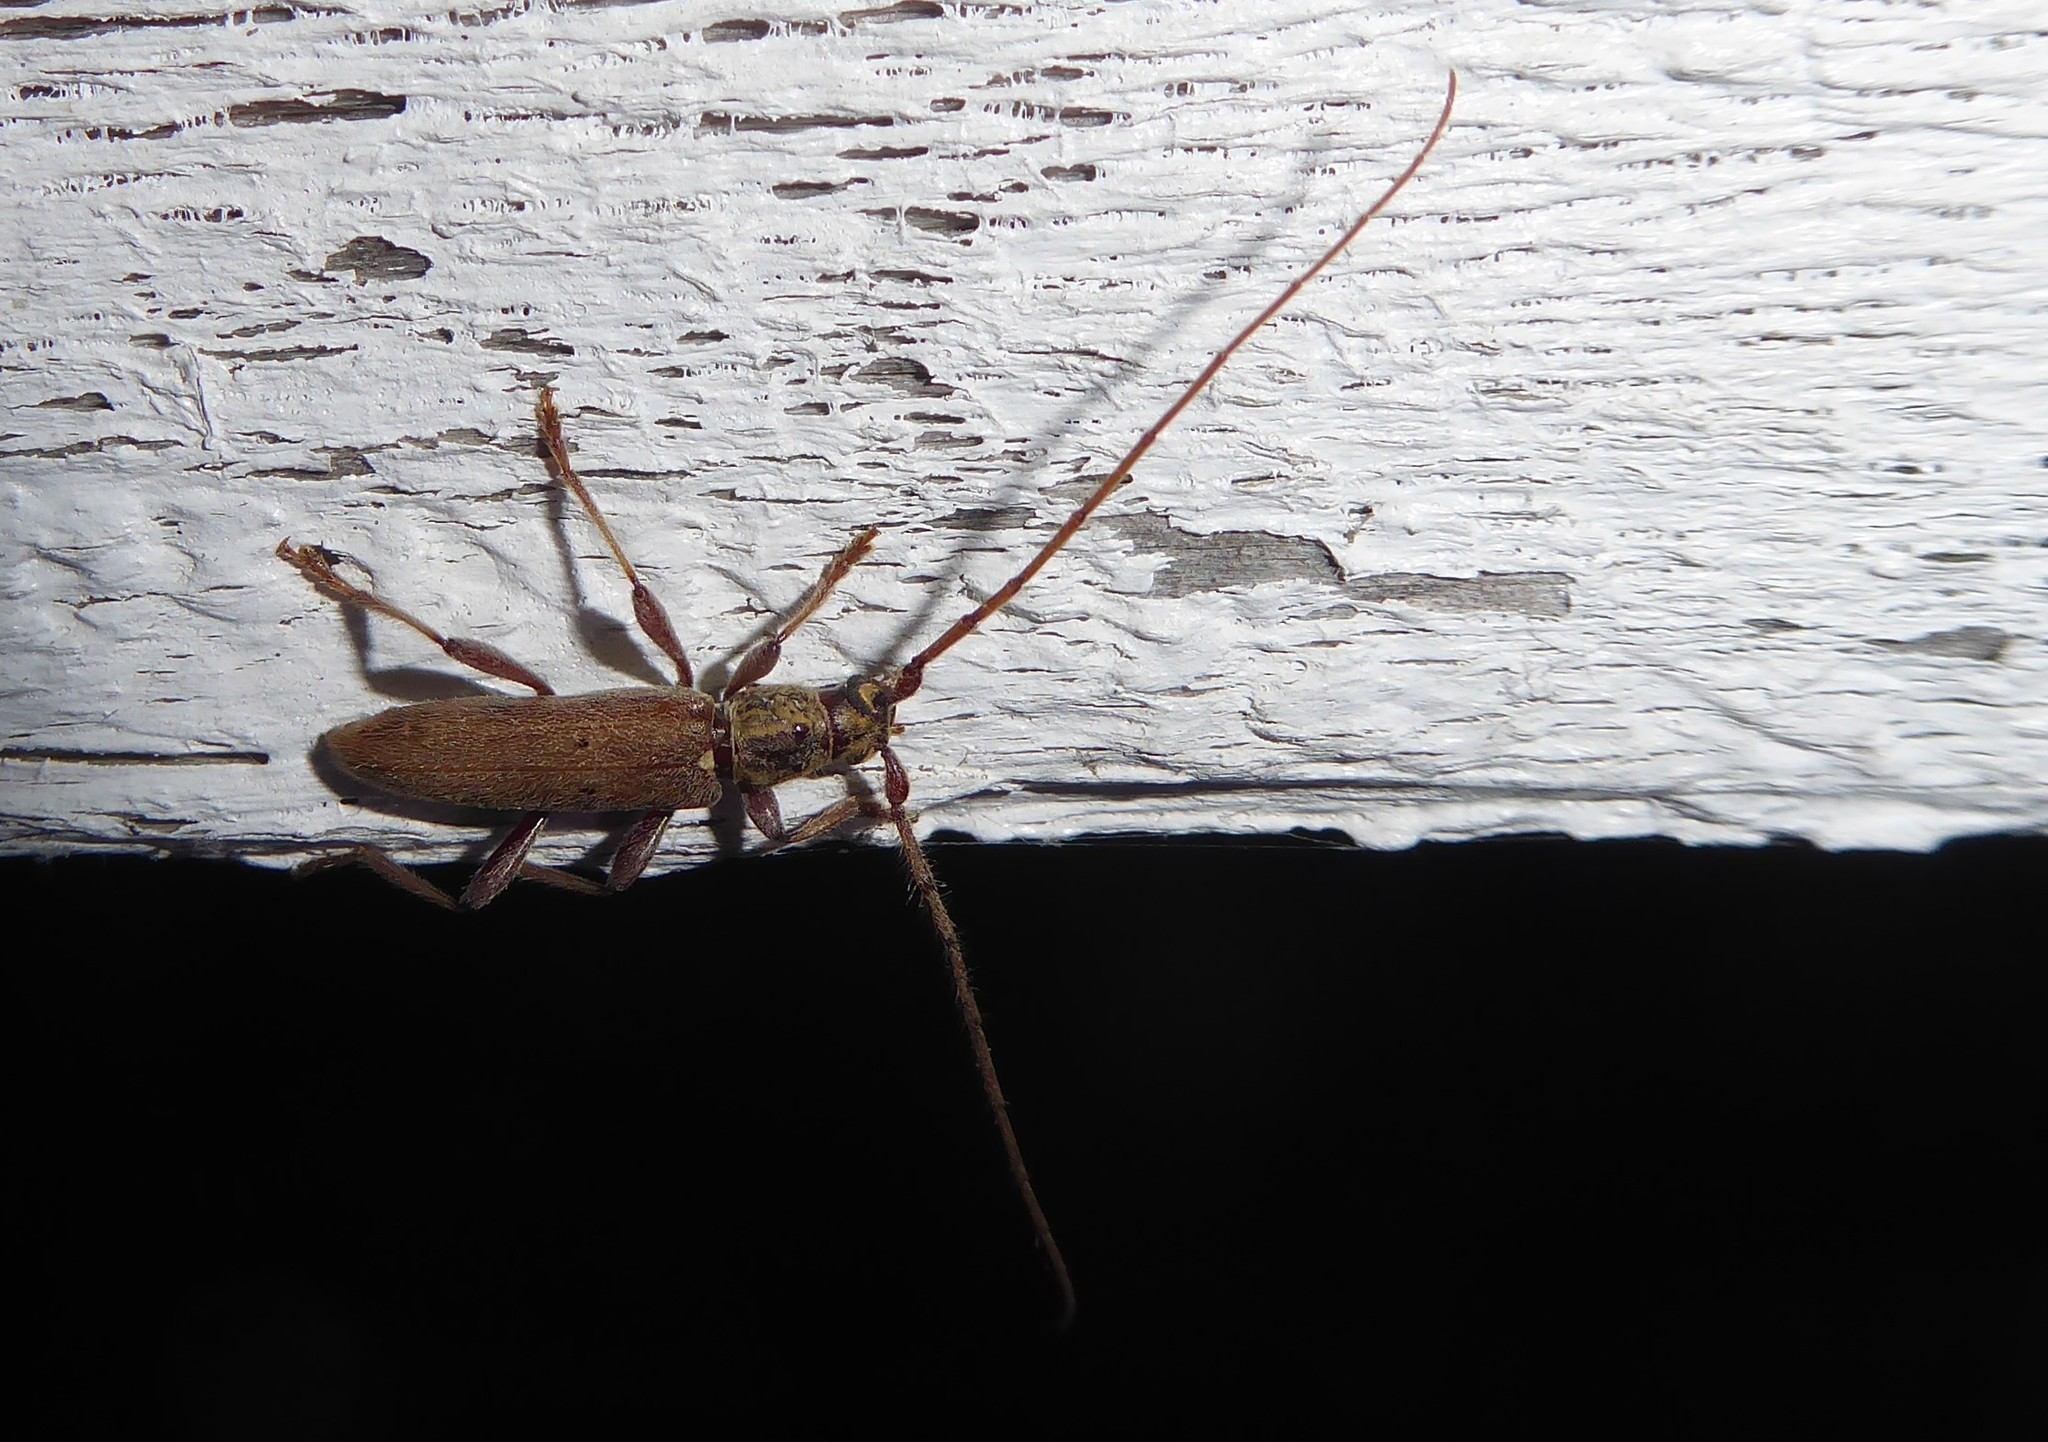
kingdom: Animalia
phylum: Arthropoda
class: Insecta
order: Coleoptera
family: Cerambycidae
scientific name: Cerambycidae
